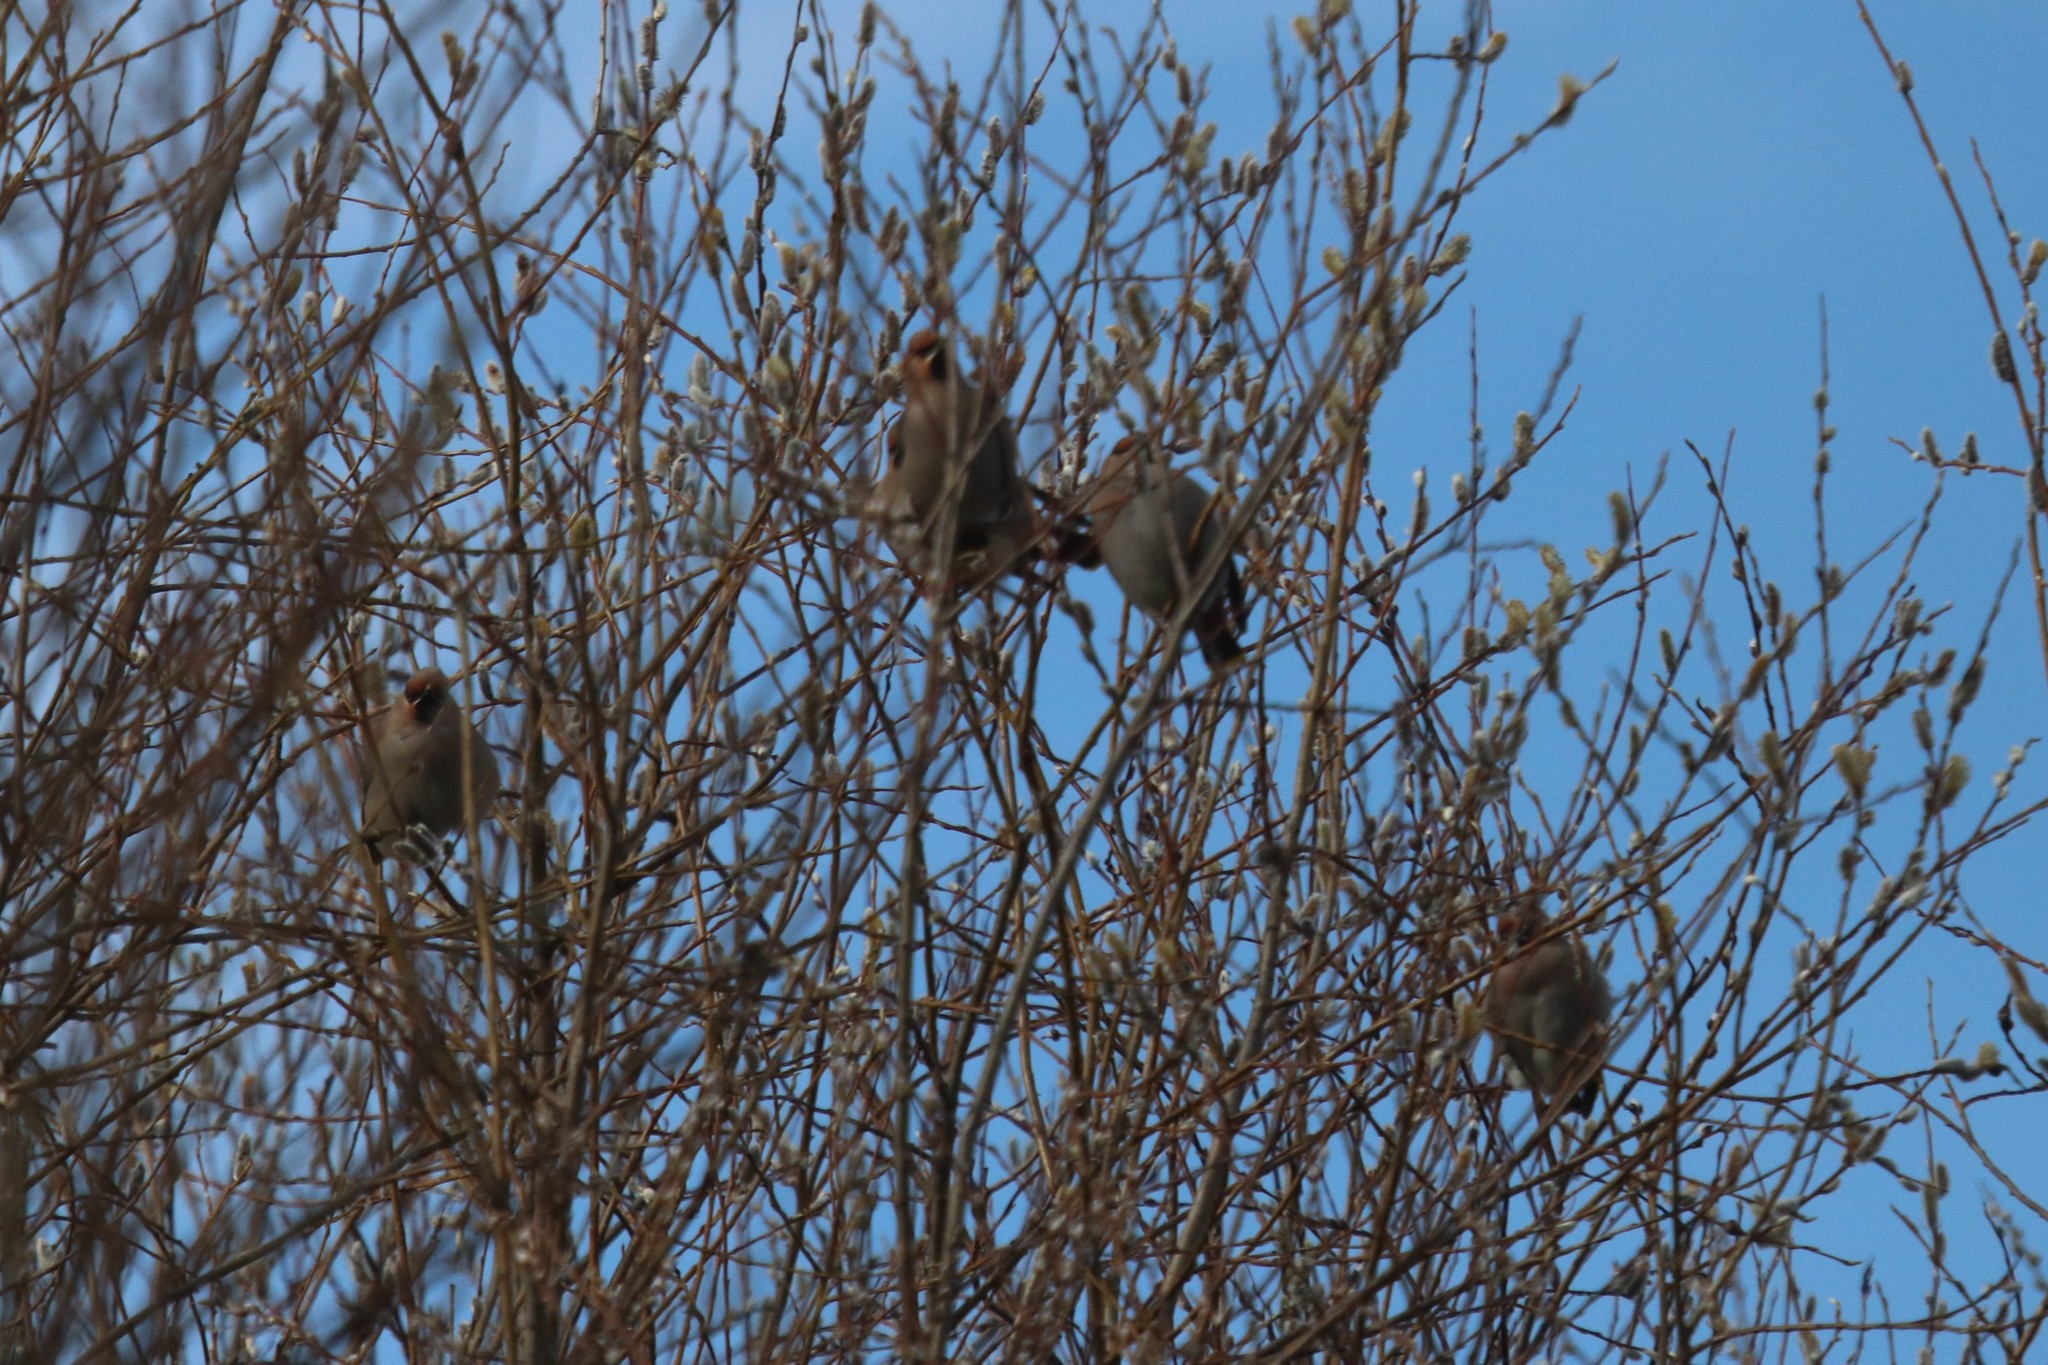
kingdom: Animalia
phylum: Chordata
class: Aves
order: Passeriformes
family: Bombycillidae
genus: Bombycilla
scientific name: Bombycilla garrulus
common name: Bohemian waxwing
